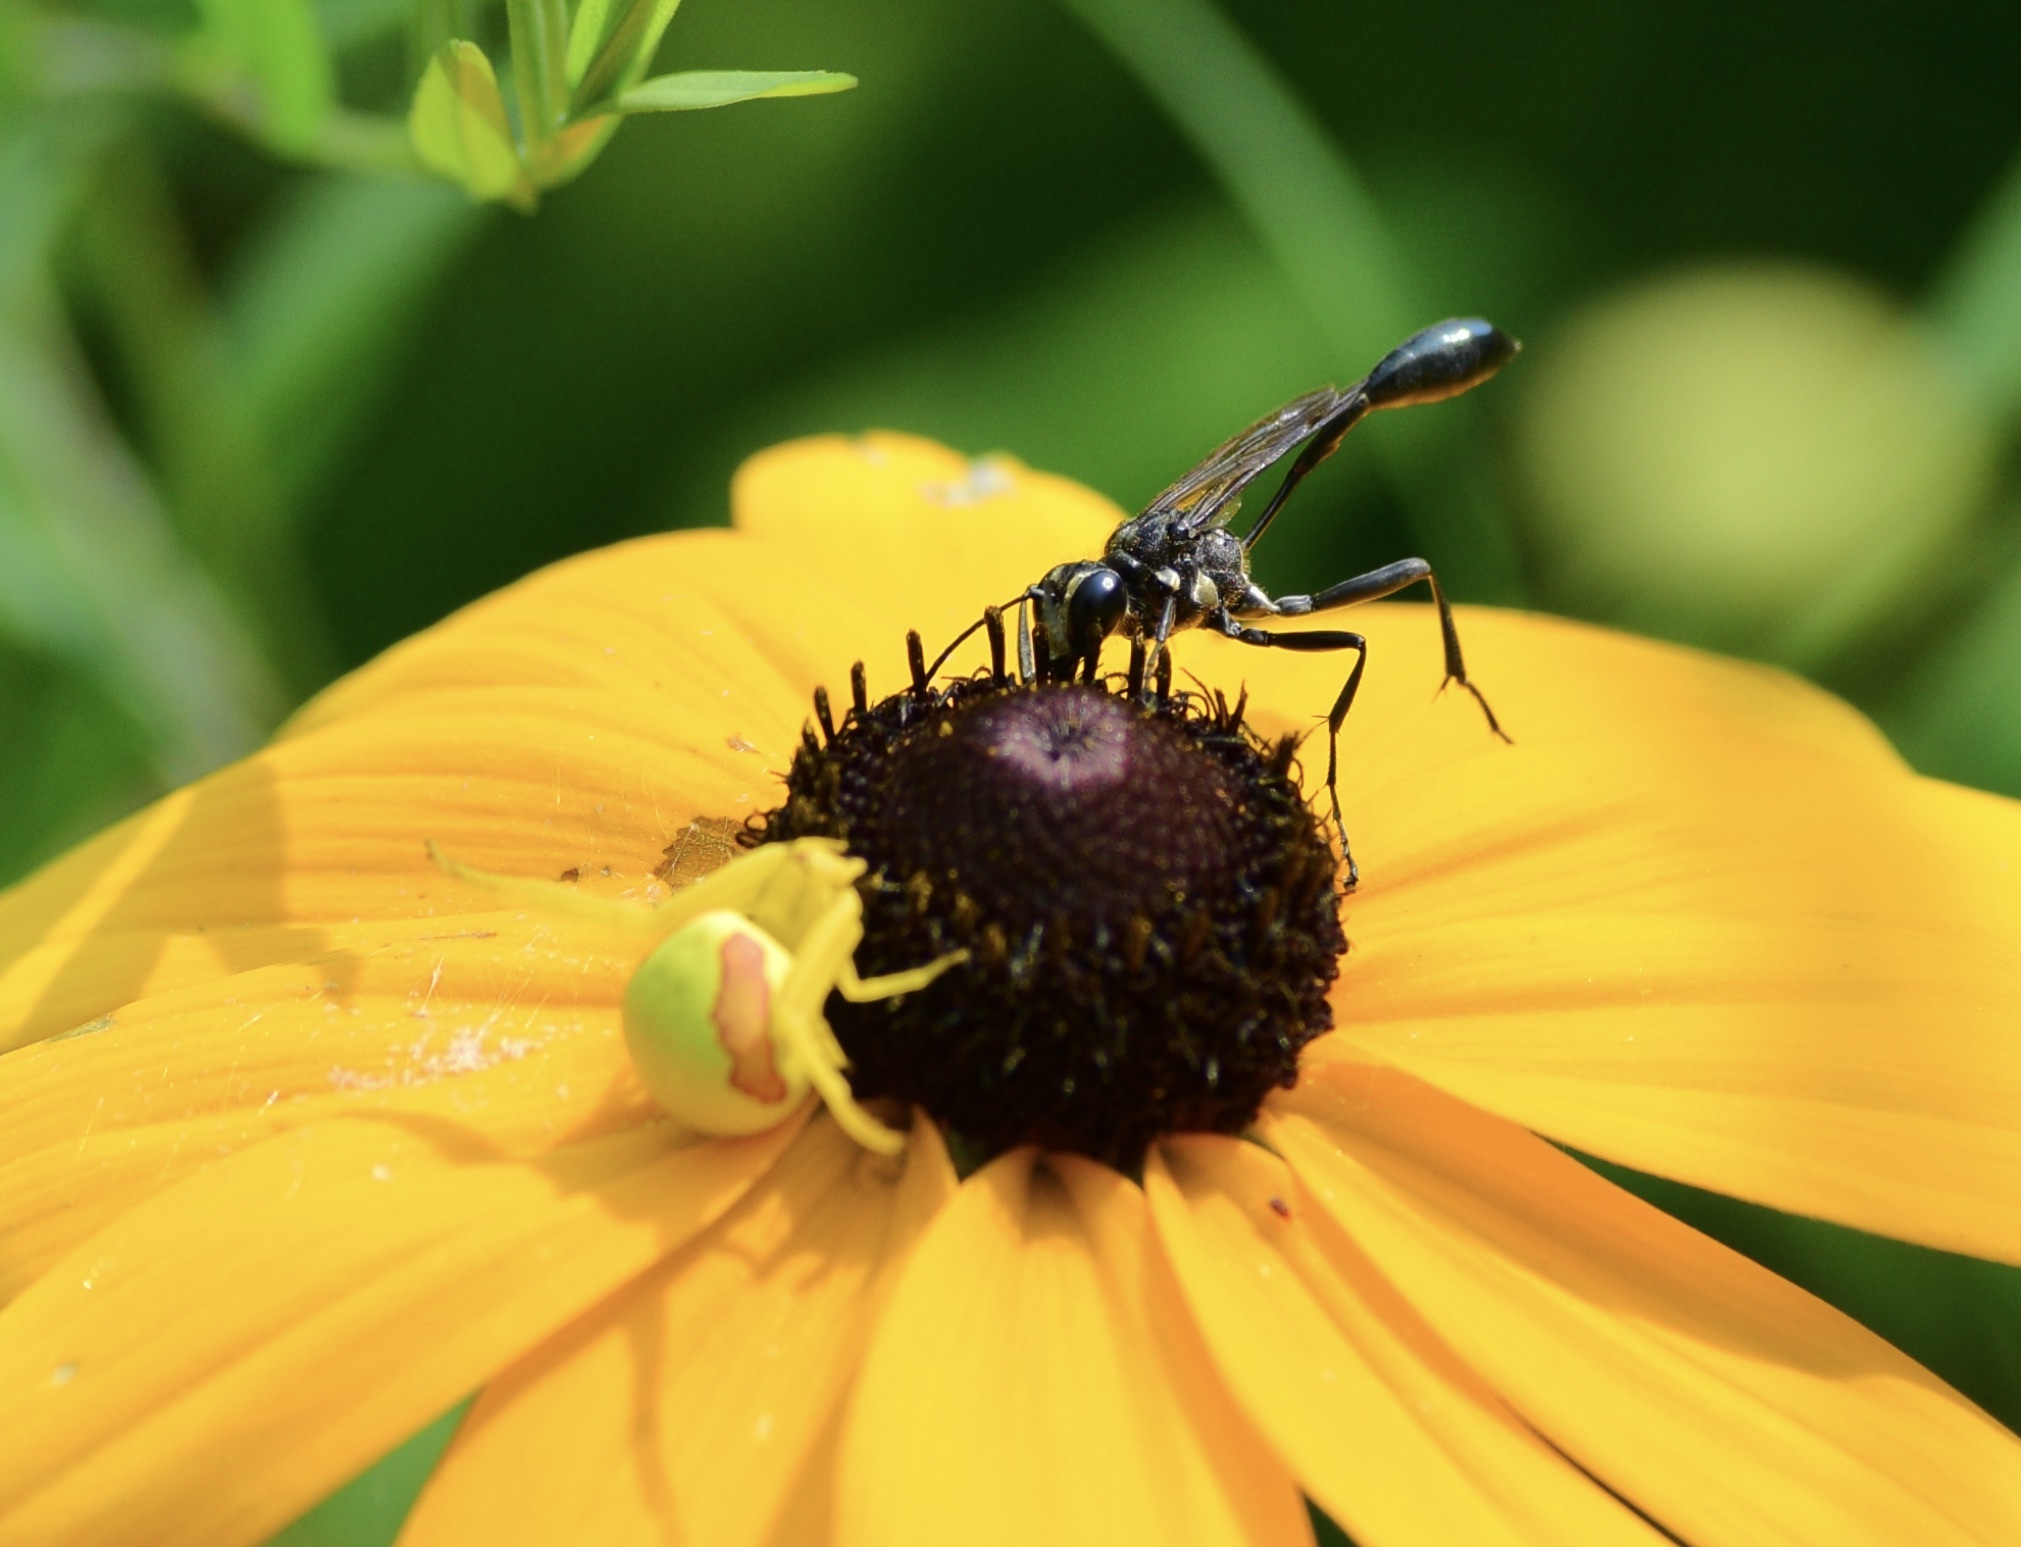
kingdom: Animalia
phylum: Arthropoda
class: Insecta
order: Hymenoptera
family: Sphecidae
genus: Eremnophila
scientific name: Eremnophila aureonotata
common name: Gold-marked thread-waisted wasp
